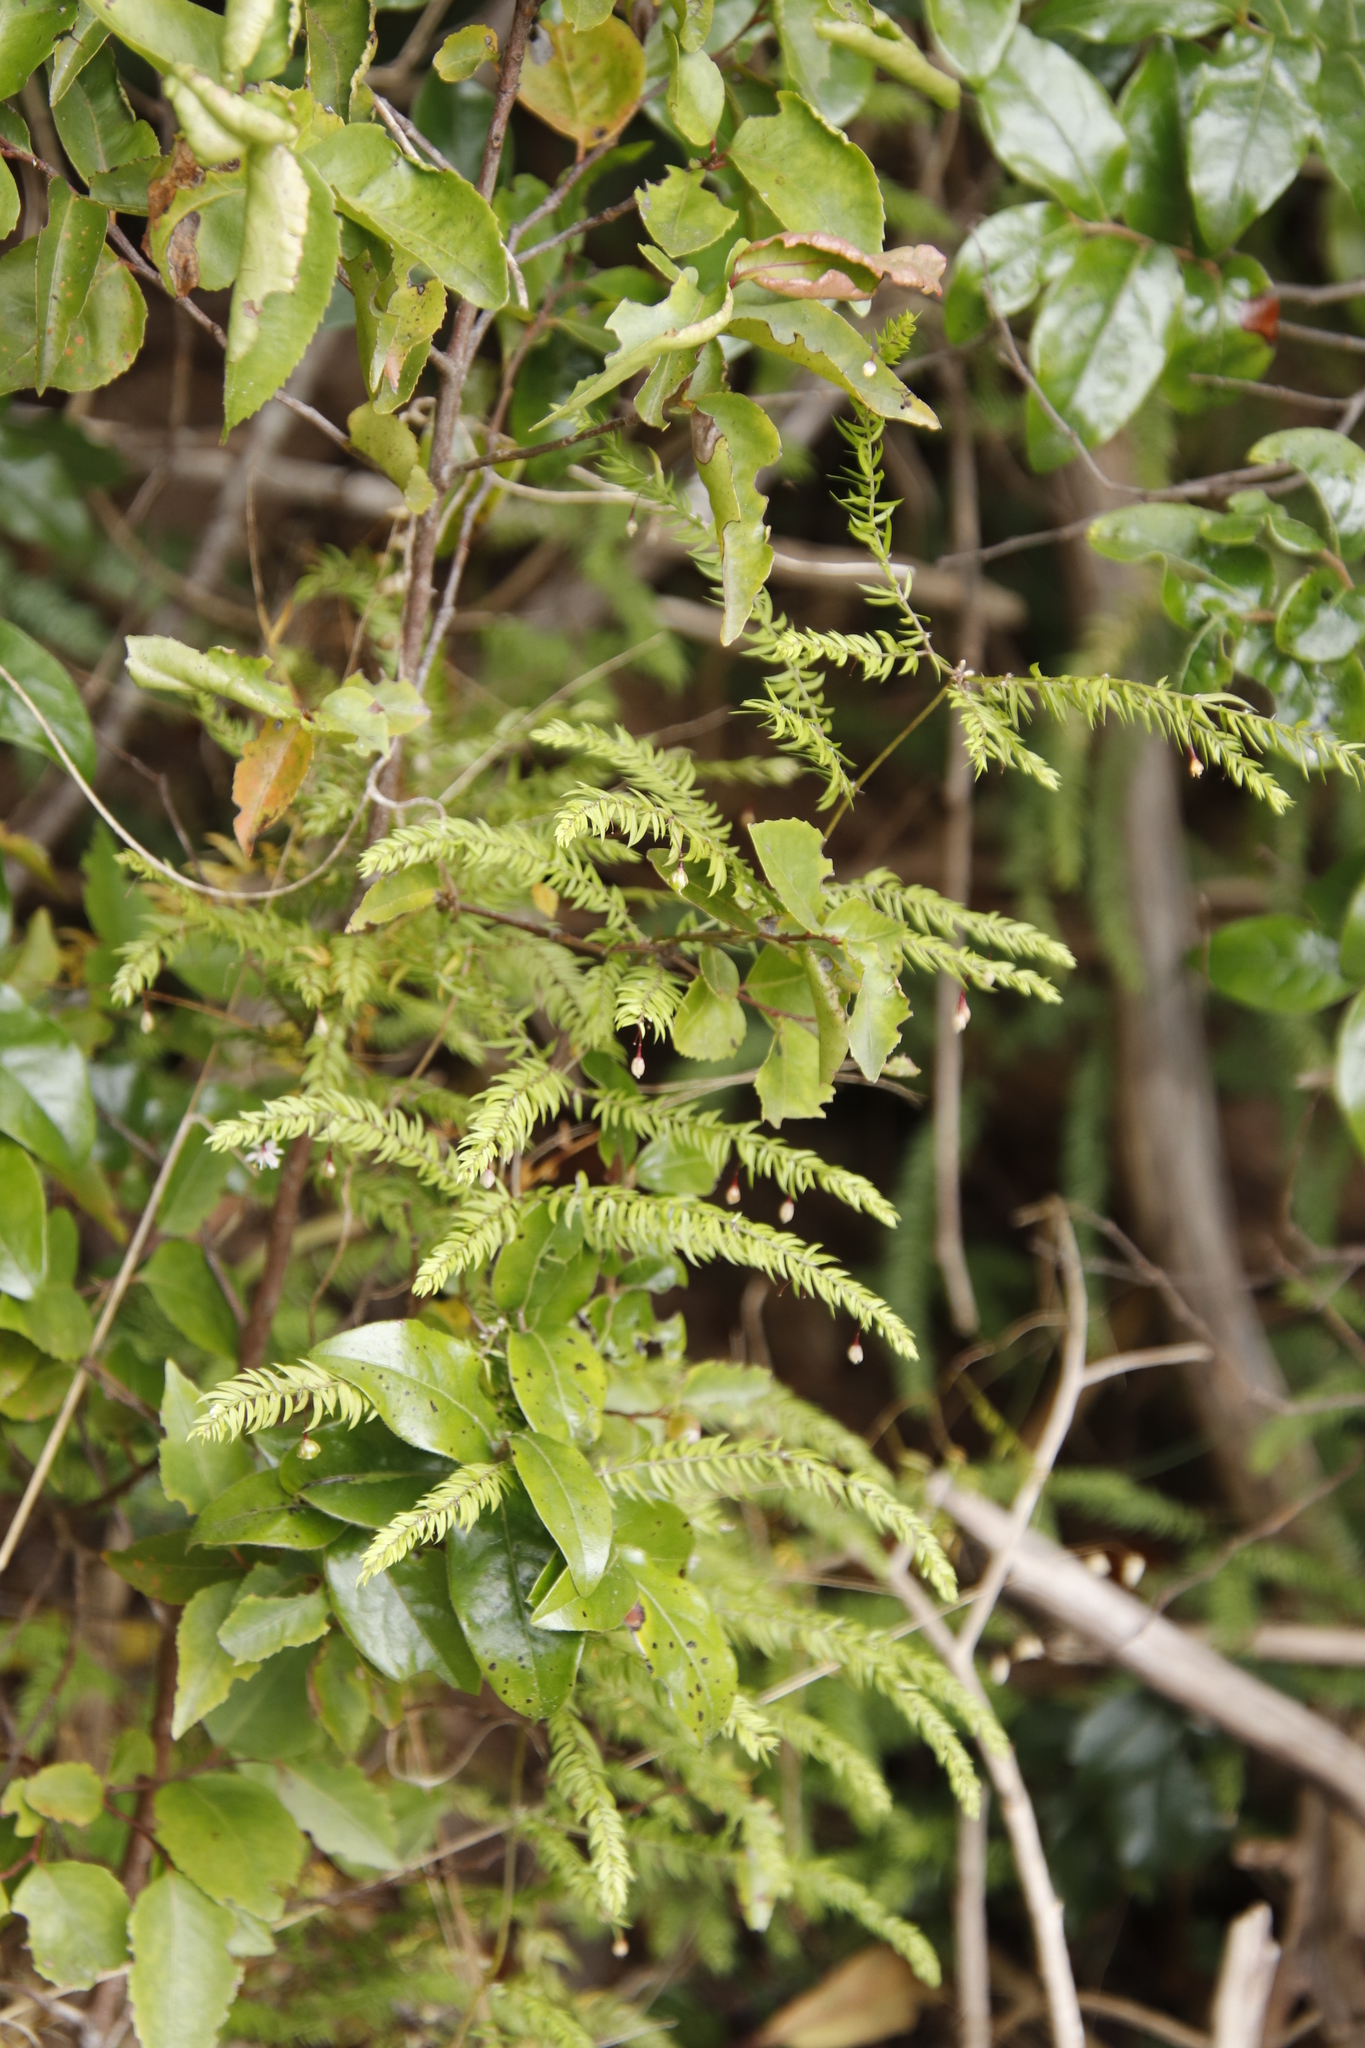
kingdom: Plantae
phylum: Tracheophyta
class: Liliopsida
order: Asparagales
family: Asparagaceae
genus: Asparagus
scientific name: Asparagus scandens
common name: Asparagus-fern
